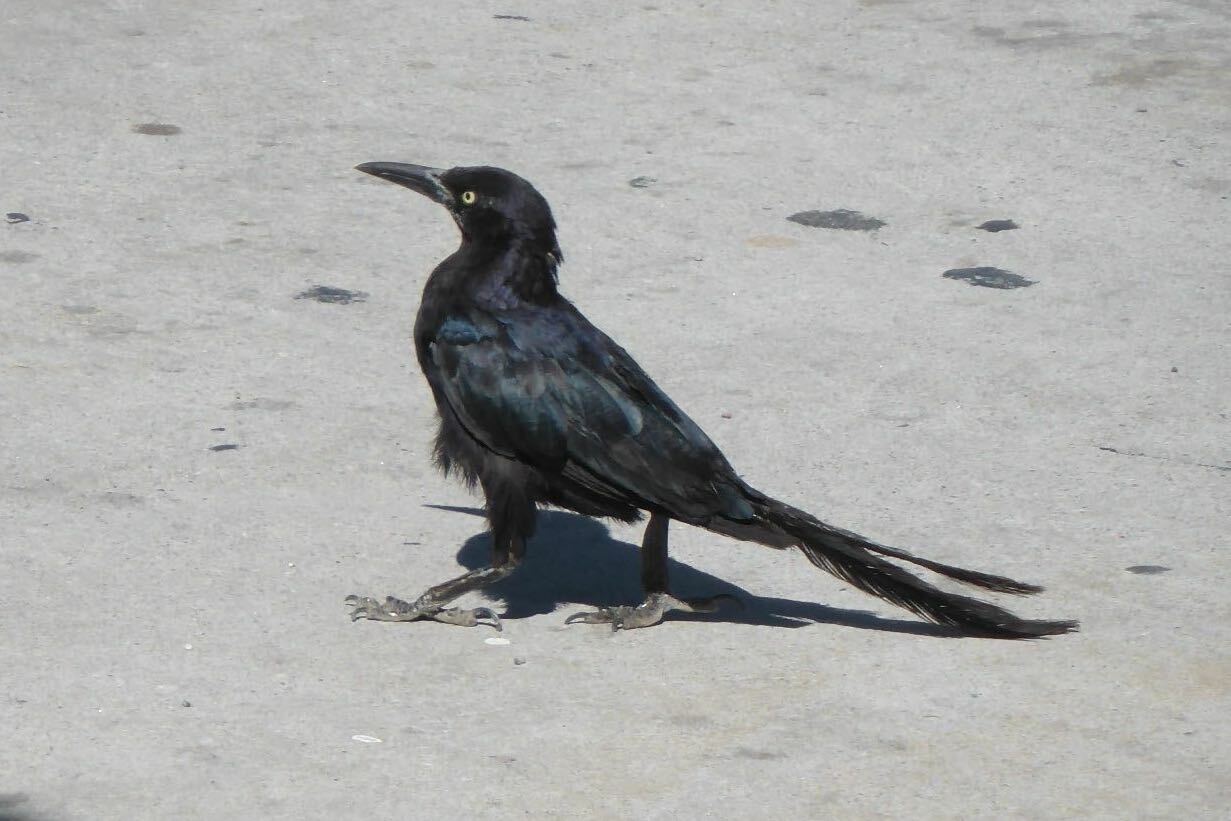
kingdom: Animalia
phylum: Chordata
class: Aves
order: Passeriformes
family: Icteridae
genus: Quiscalus
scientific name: Quiscalus mexicanus
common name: Great-tailed grackle
